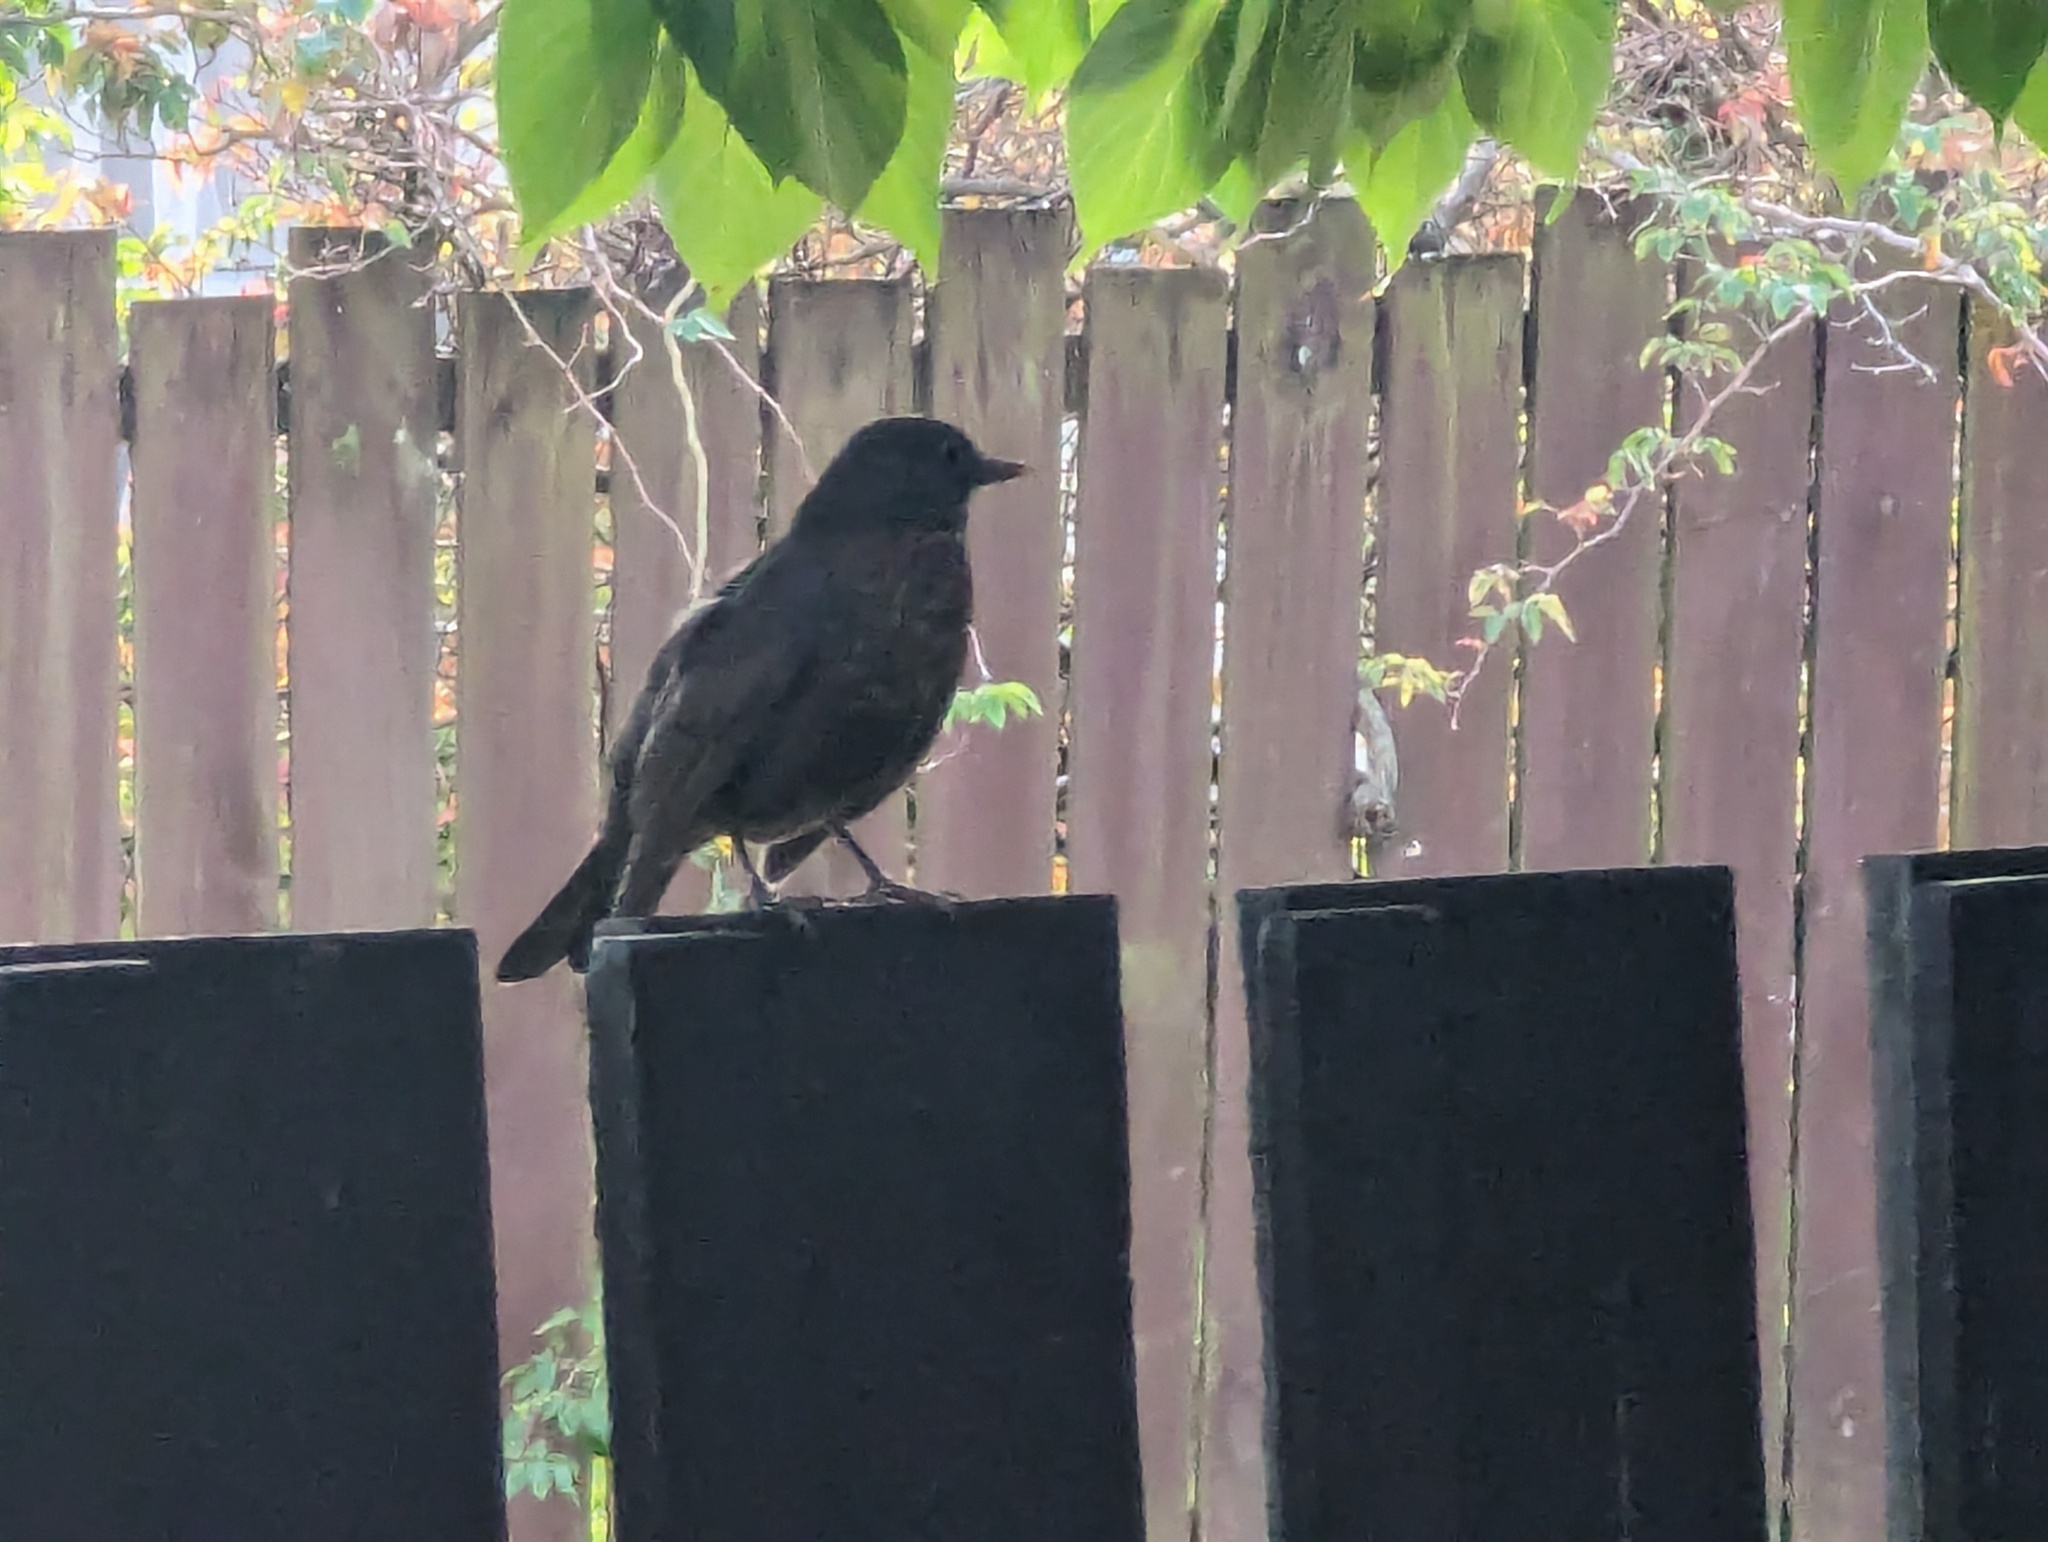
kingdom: Animalia
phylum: Chordata
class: Aves
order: Passeriformes
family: Turdidae
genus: Turdus
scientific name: Turdus merula
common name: Common blackbird
